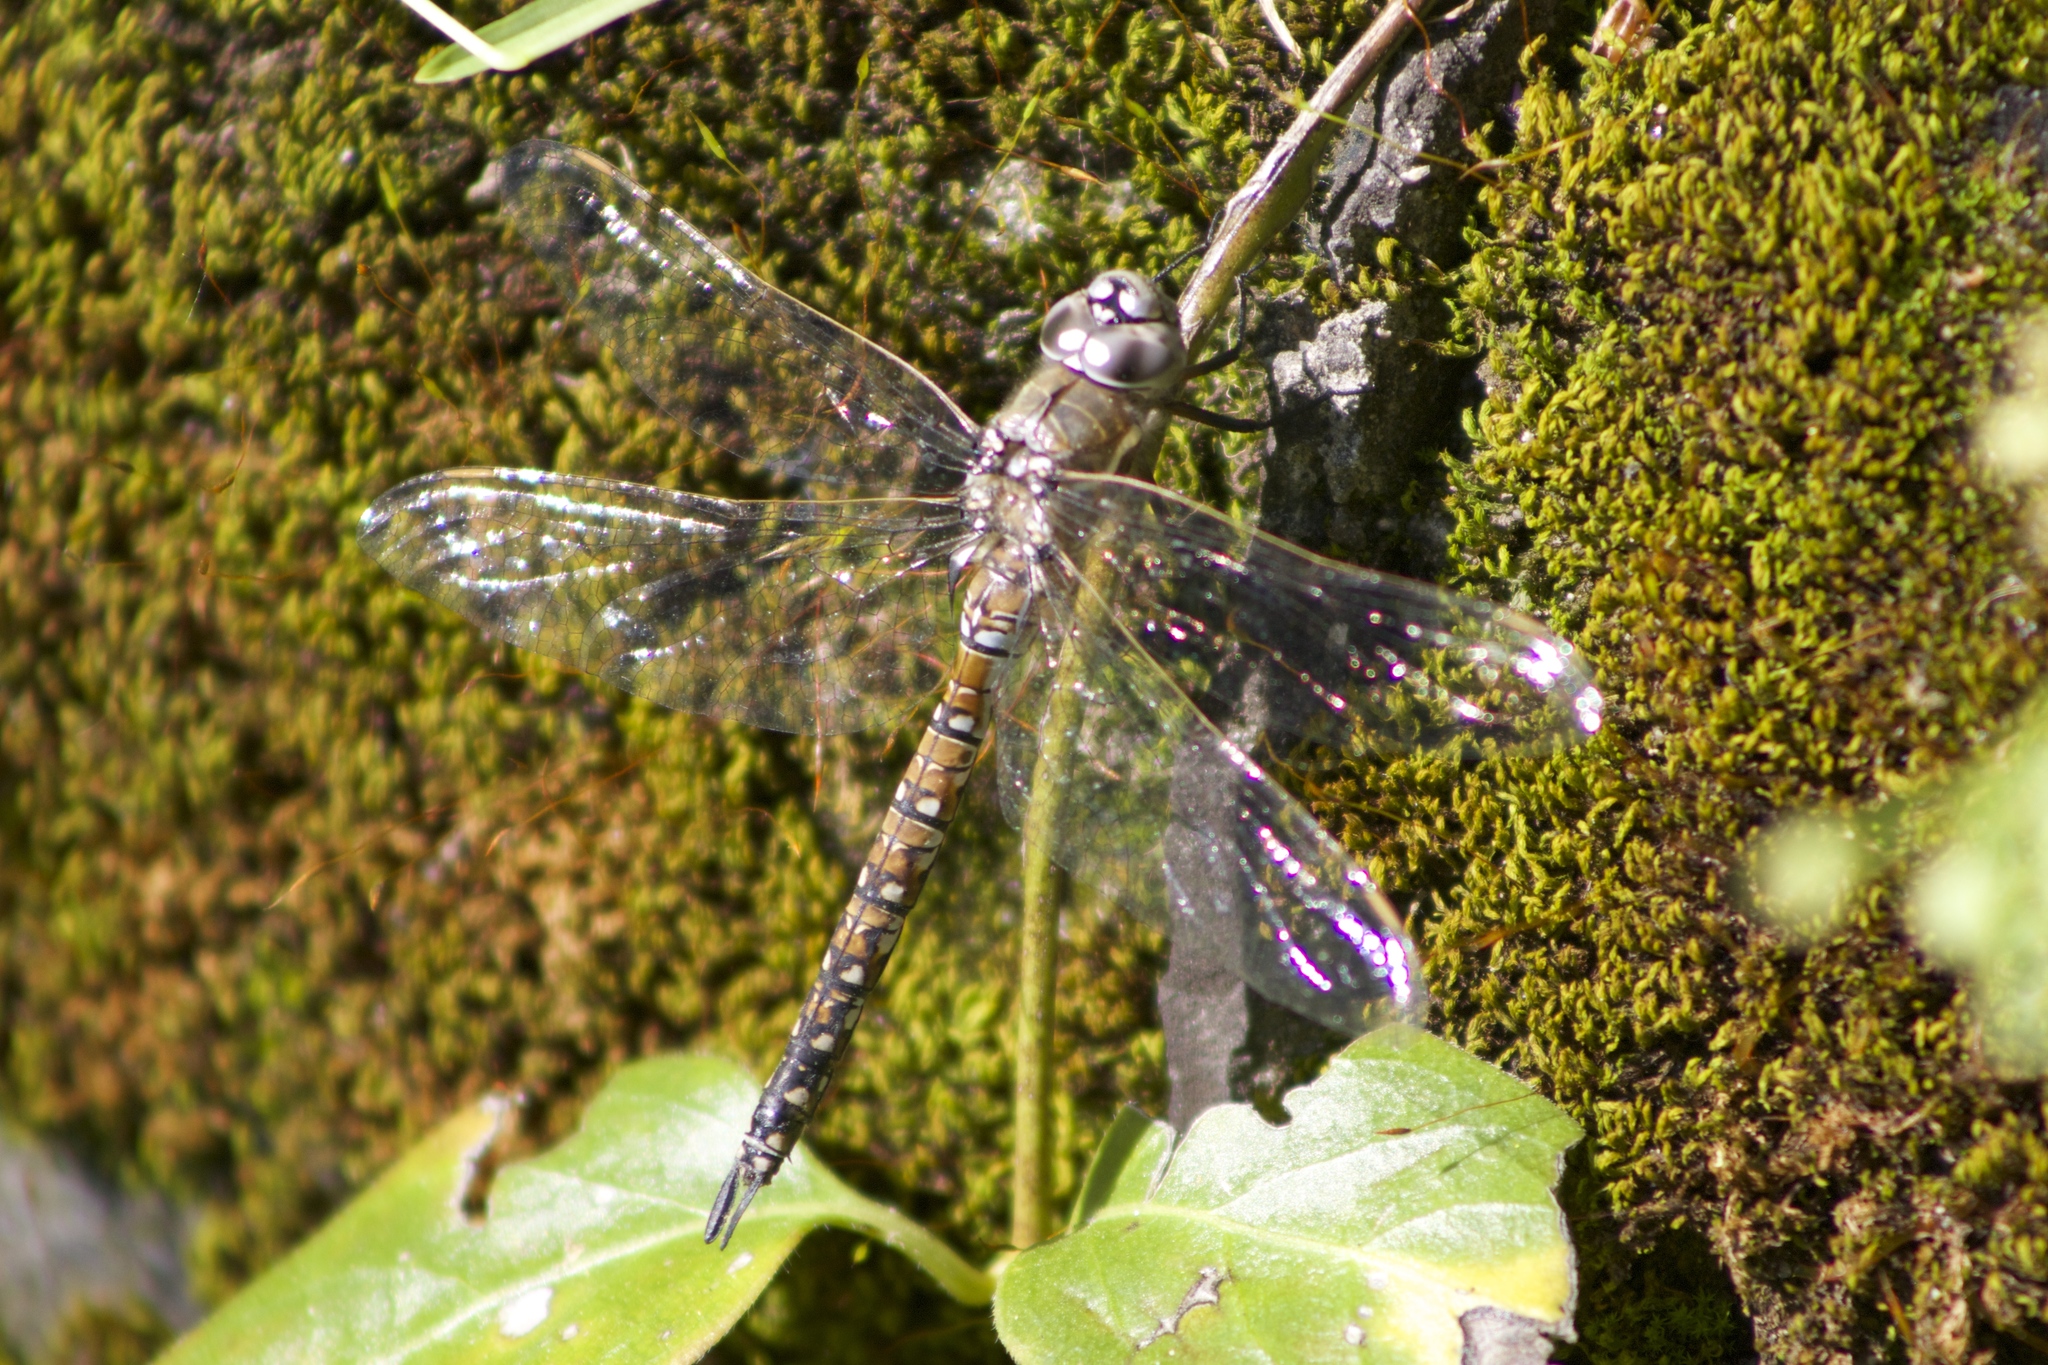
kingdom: Animalia
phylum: Arthropoda
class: Insecta
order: Odonata
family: Aeshnidae
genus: Rhionaeschna
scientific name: Rhionaeschna californica
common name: California darner
